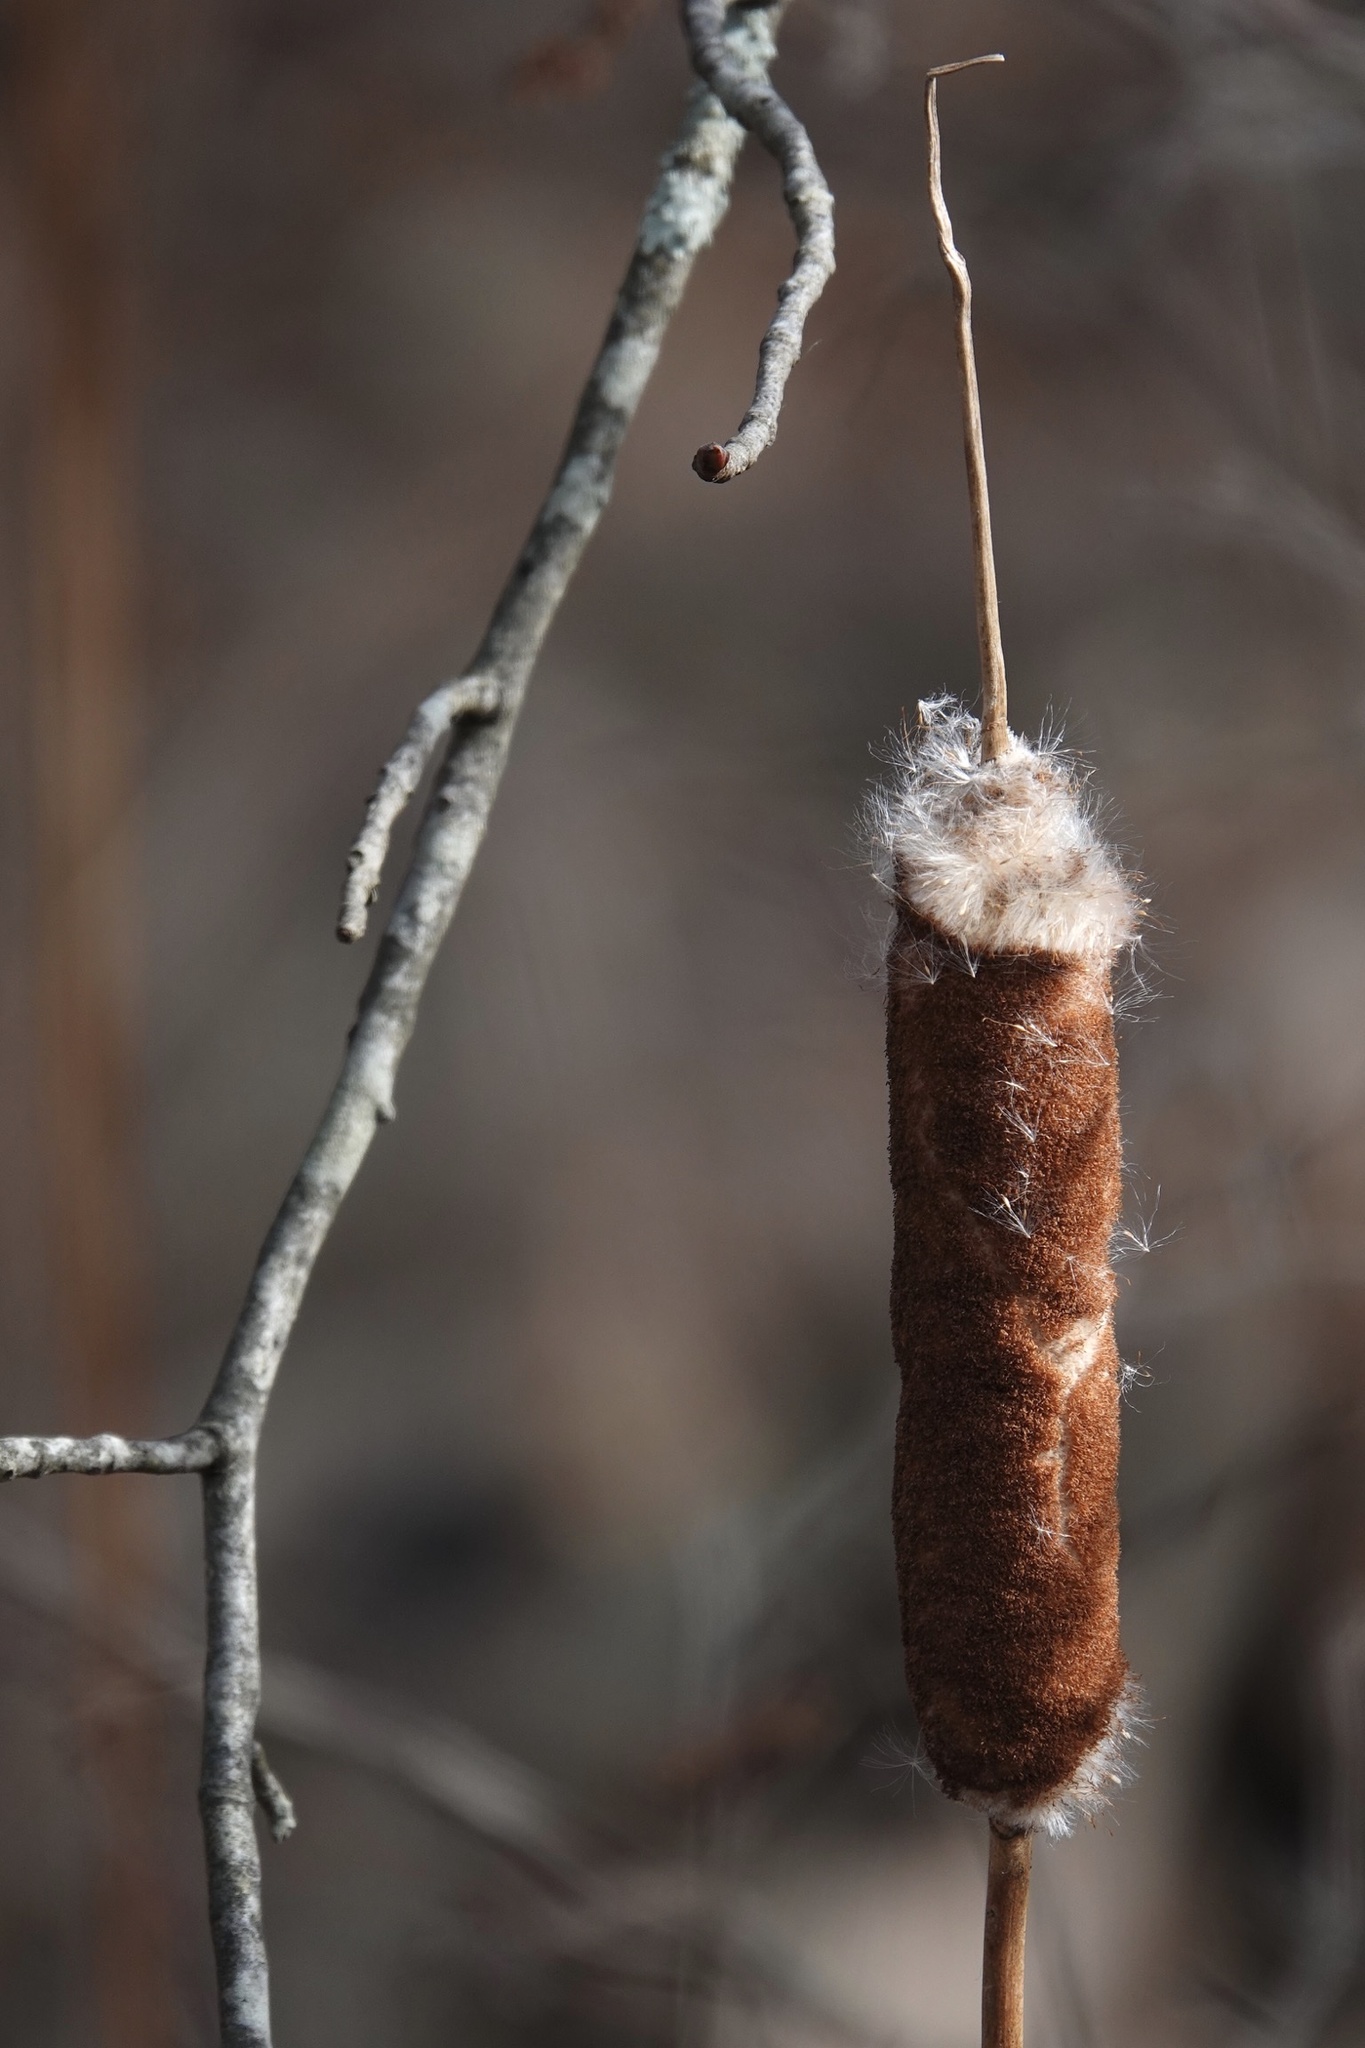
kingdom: Plantae
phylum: Tracheophyta
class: Liliopsida
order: Poales
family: Typhaceae
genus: Typha
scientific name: Typha
